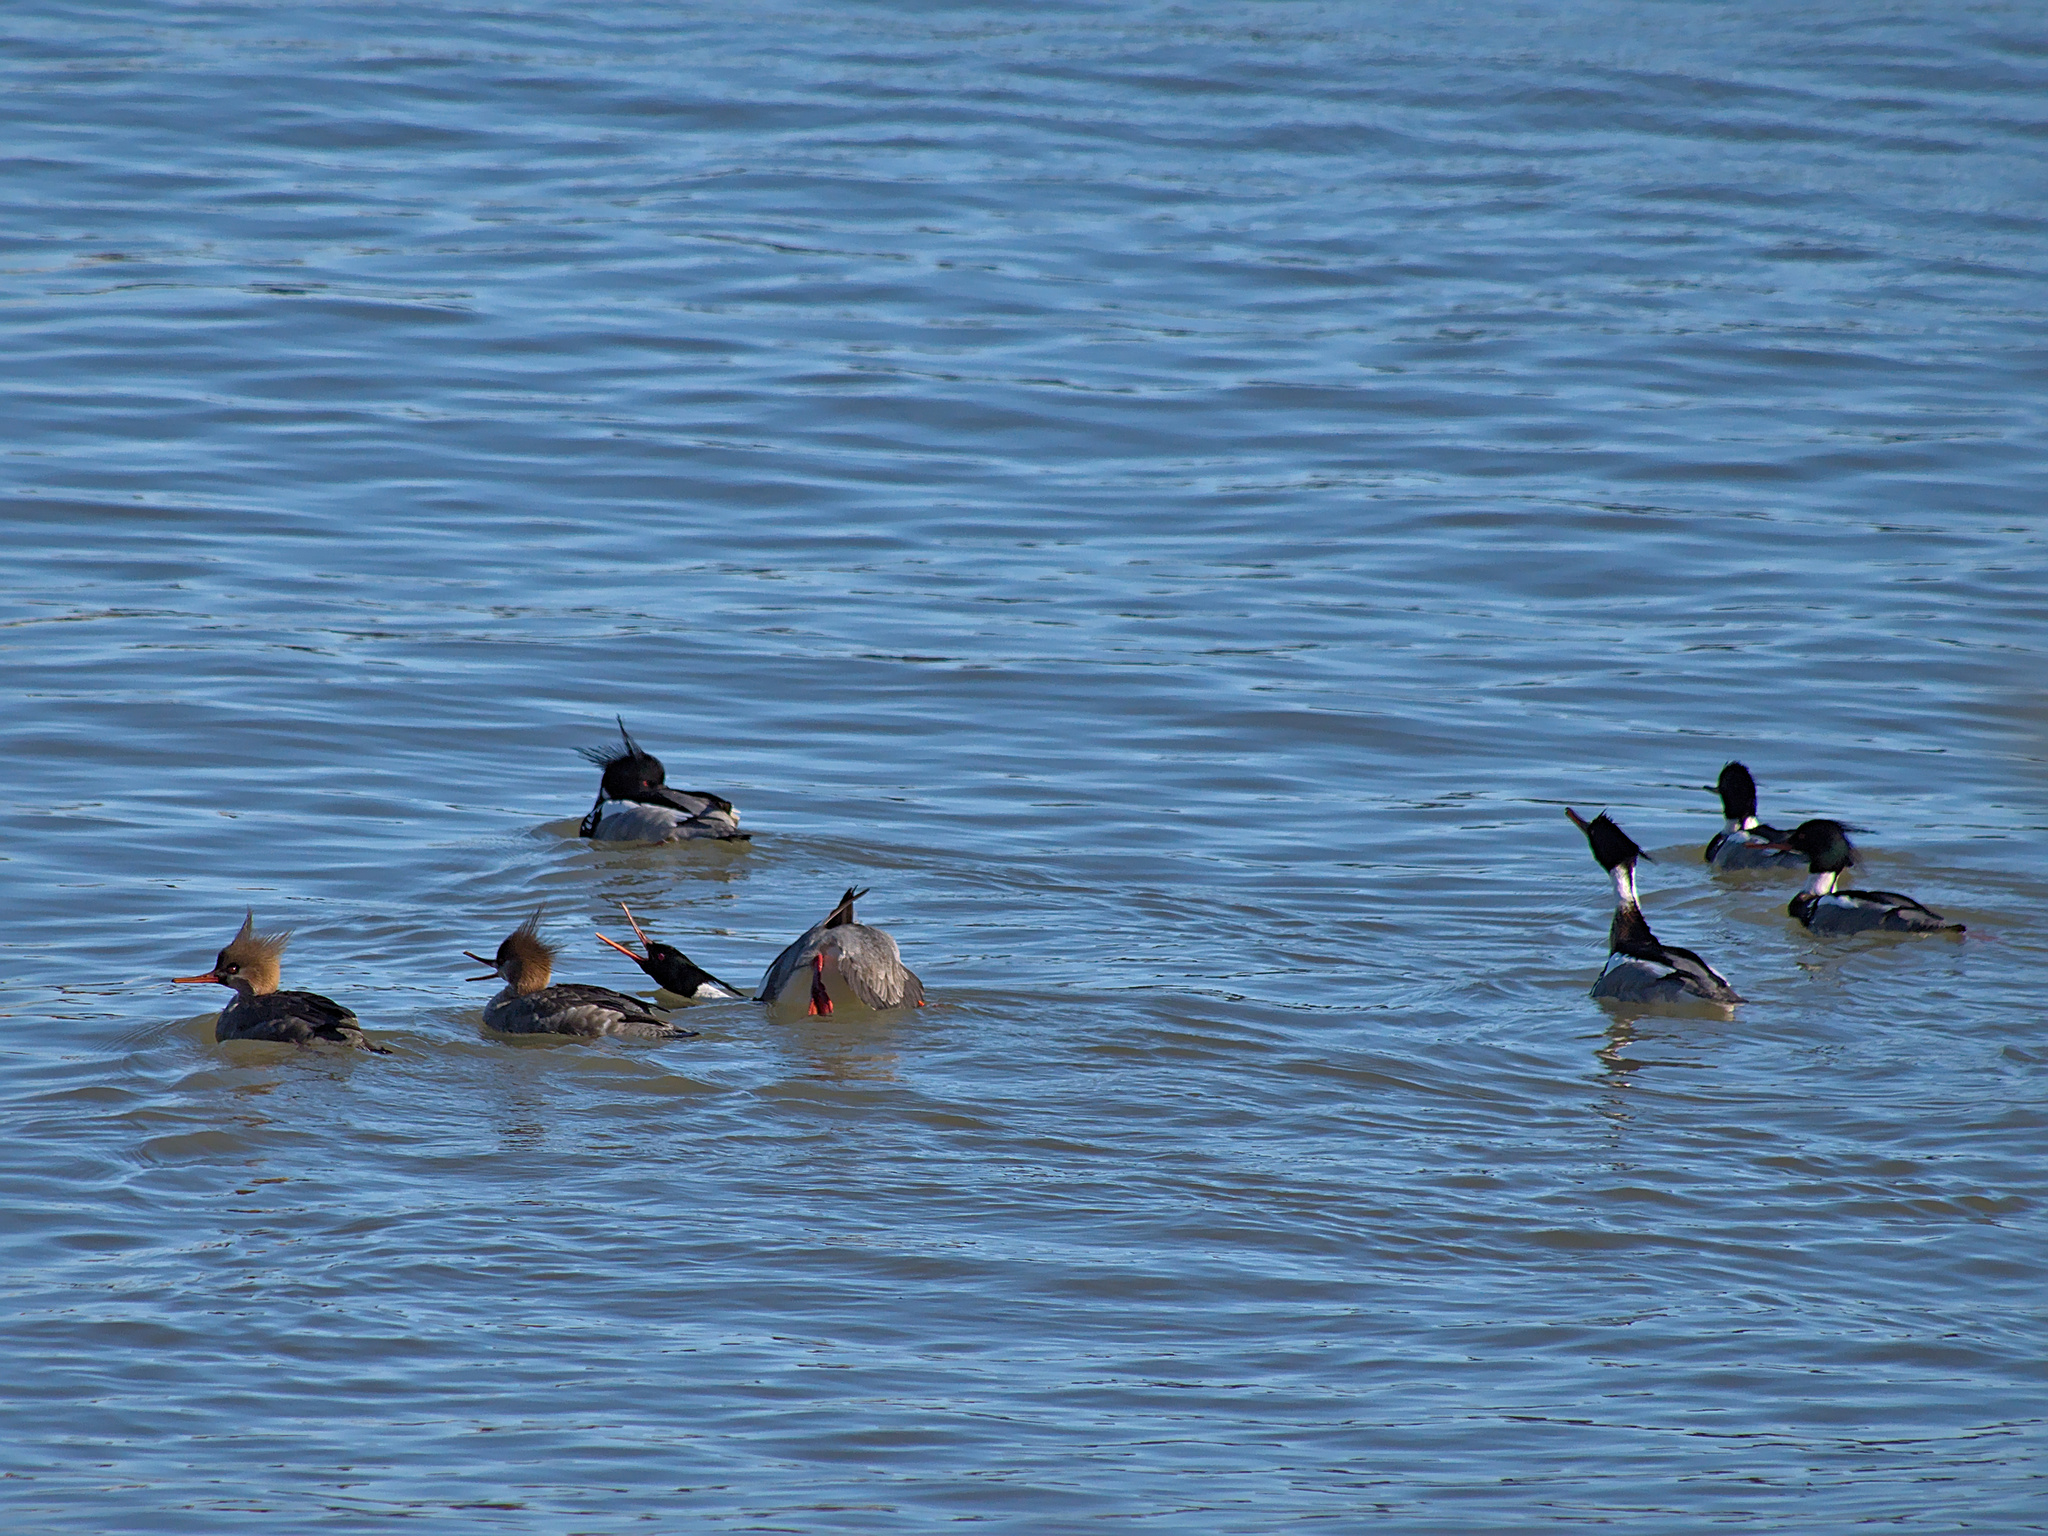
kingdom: Animalia
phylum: Chordata
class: Aves
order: Anseriformes
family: Anatidae
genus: Mergus
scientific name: Mergus serrator
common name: Red-breasted merganser
